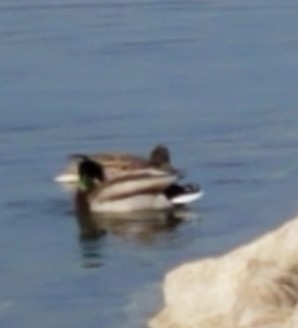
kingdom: Animalia
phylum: Chordata
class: Aves
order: Anseriformes
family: Anatidae
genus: Anas
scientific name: Anas platyrhynchos
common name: Mallard
